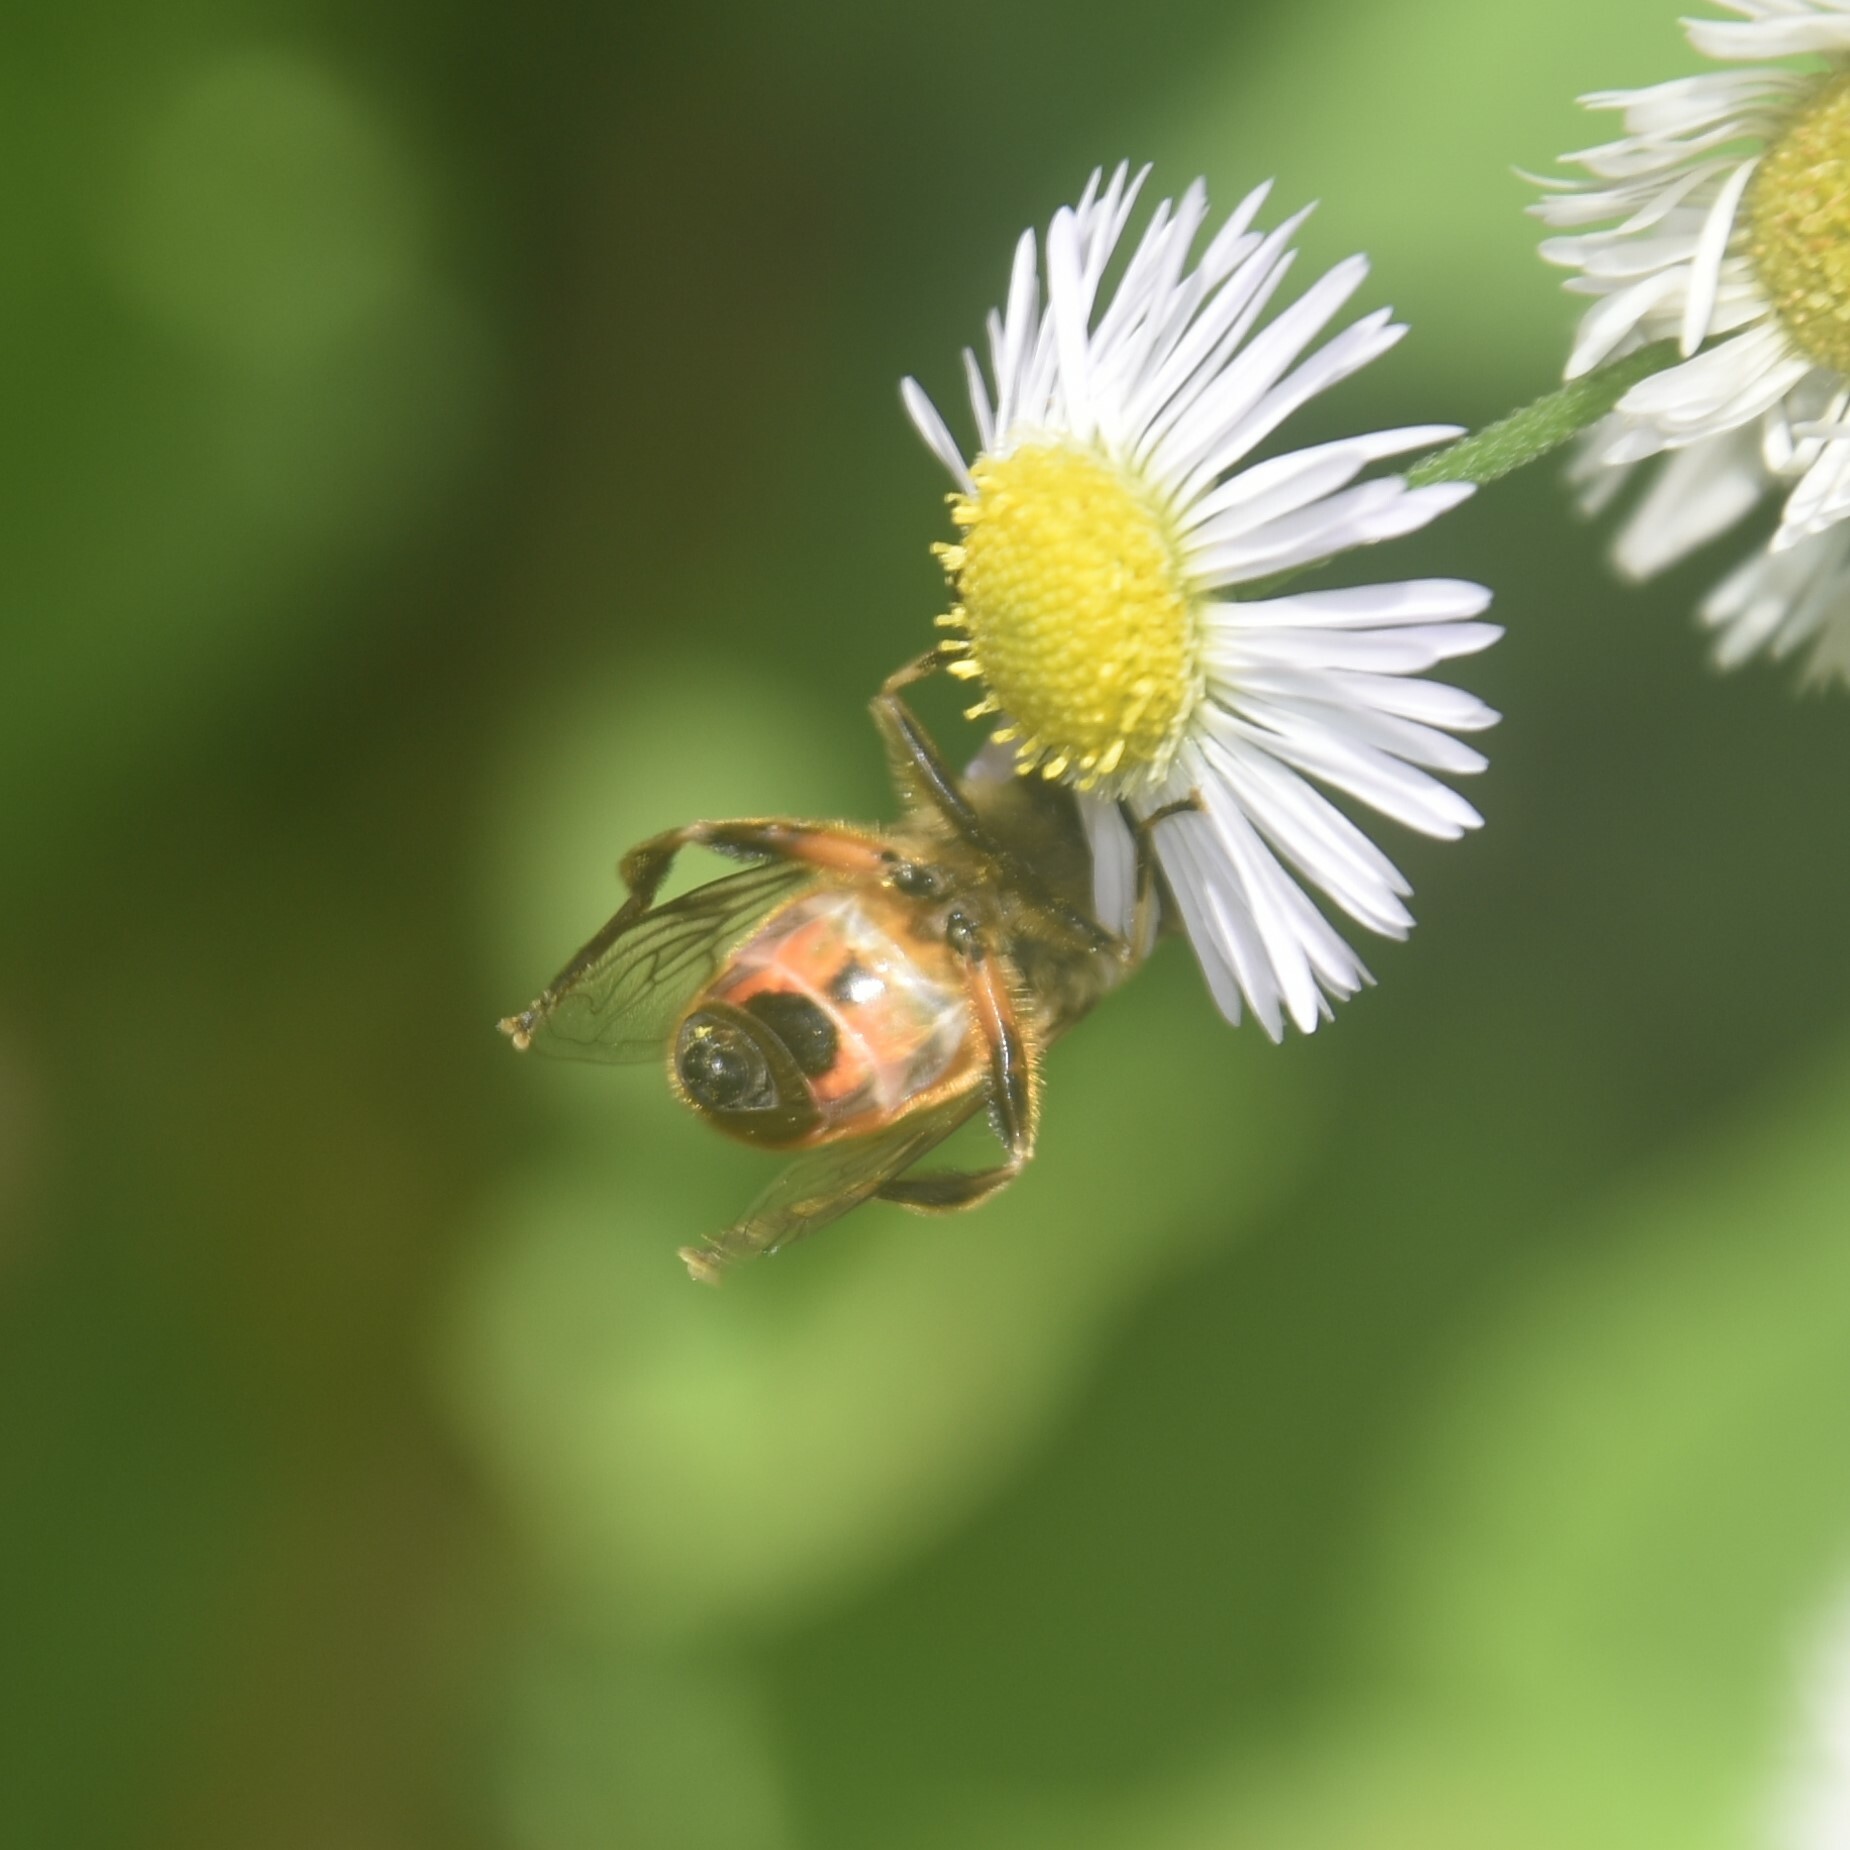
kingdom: Animalia
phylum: Arthropoda
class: Insecta
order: Diptera
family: Syrphidae
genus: Eristalis
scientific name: Eristalis tenax
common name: Drone fly
